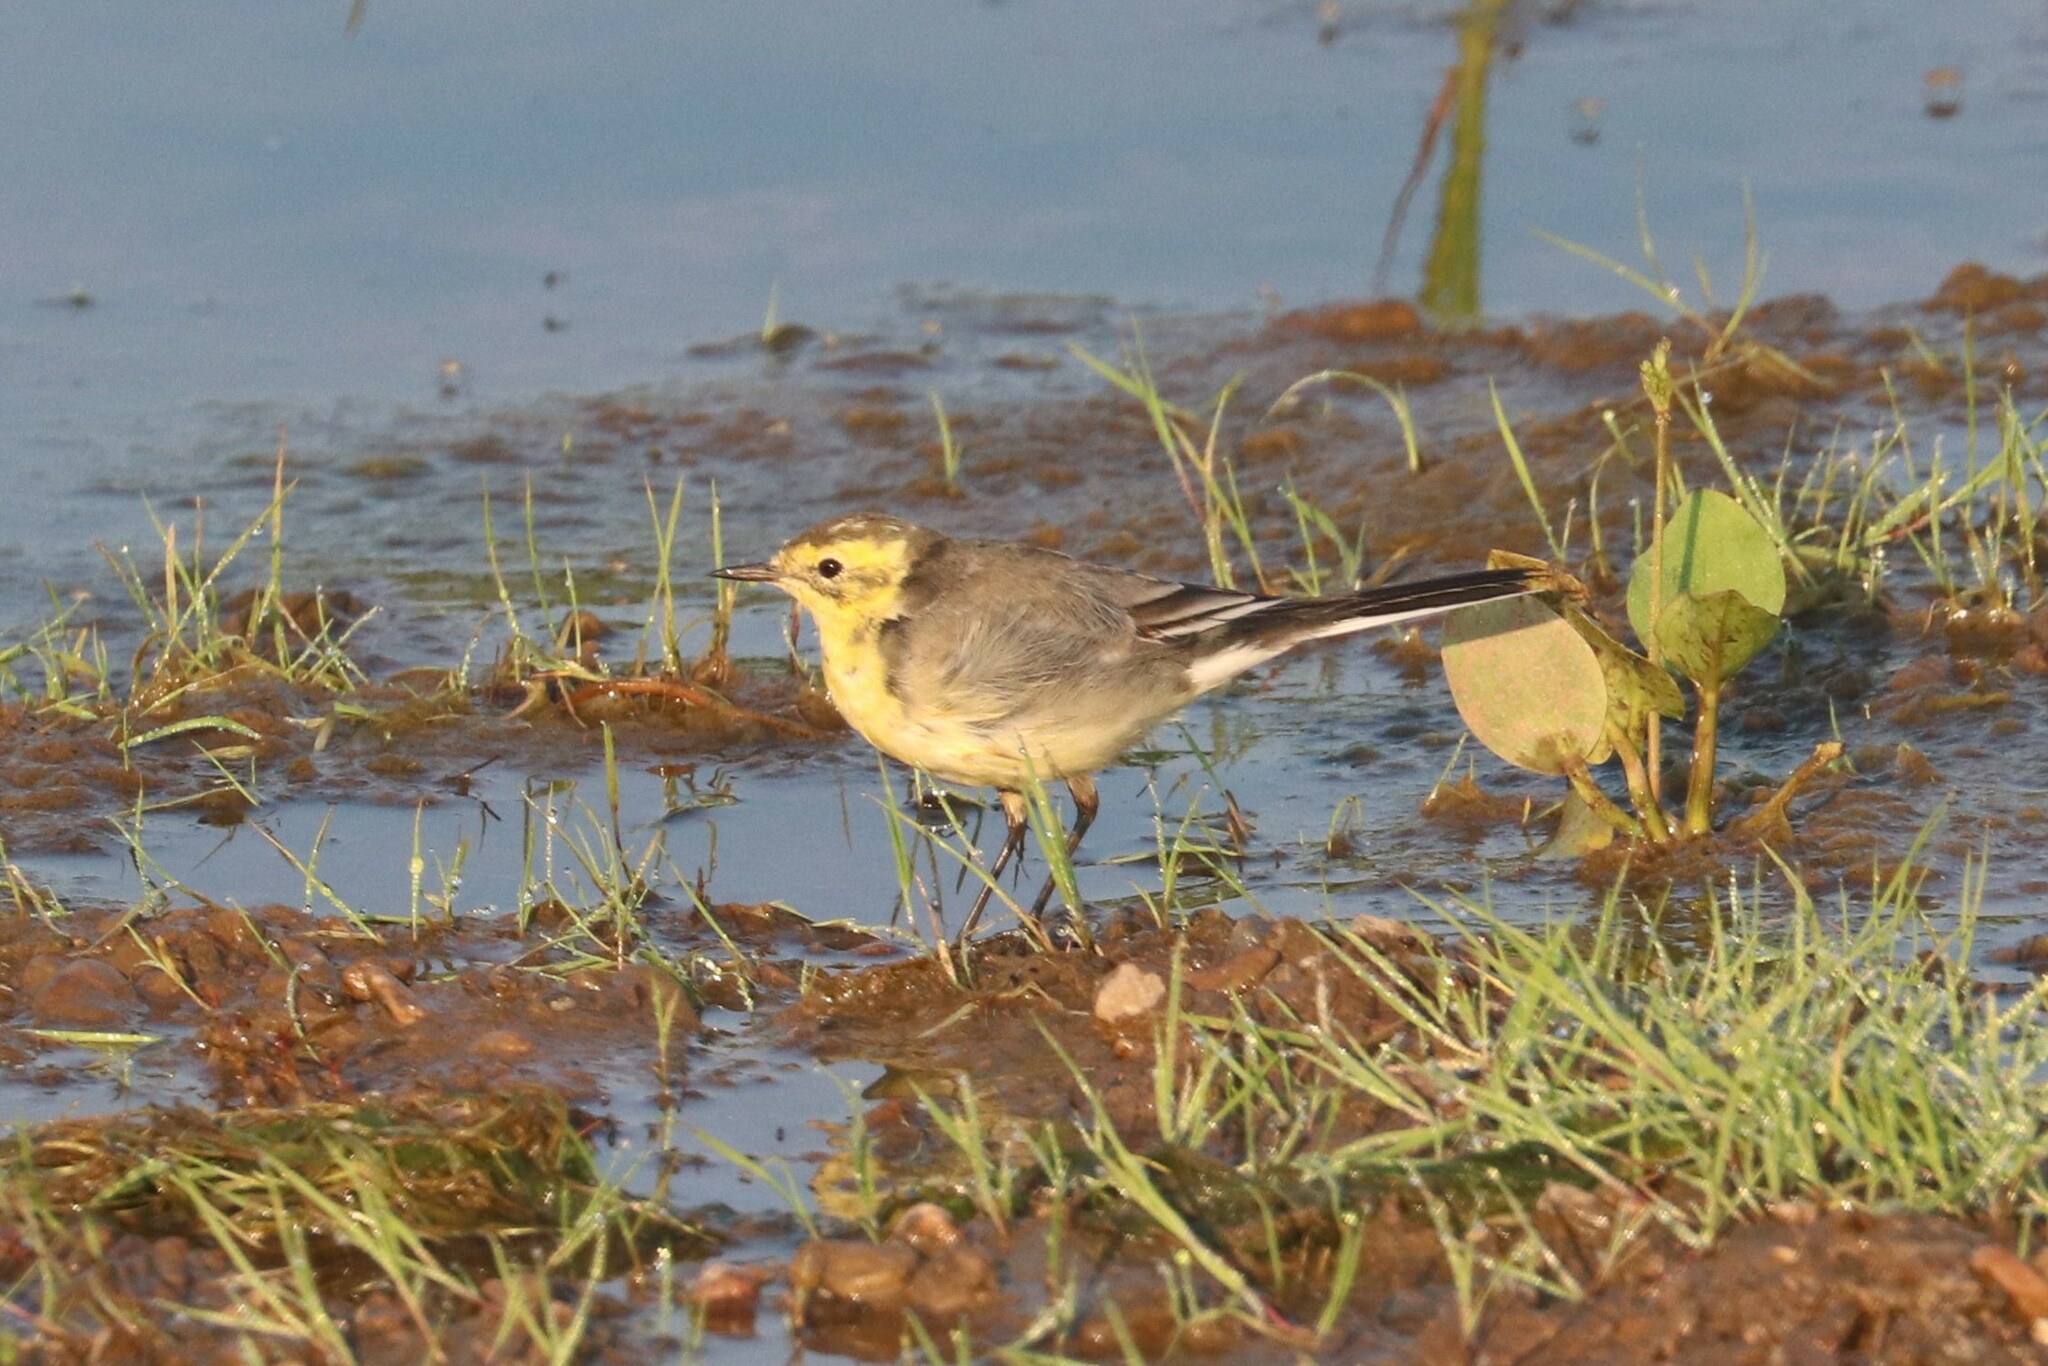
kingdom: Animalia
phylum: Chordata
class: Aves
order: Passeriformes
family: Motacillidae
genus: Motacilla
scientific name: Motacilla citreola
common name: Citrine wagtail
